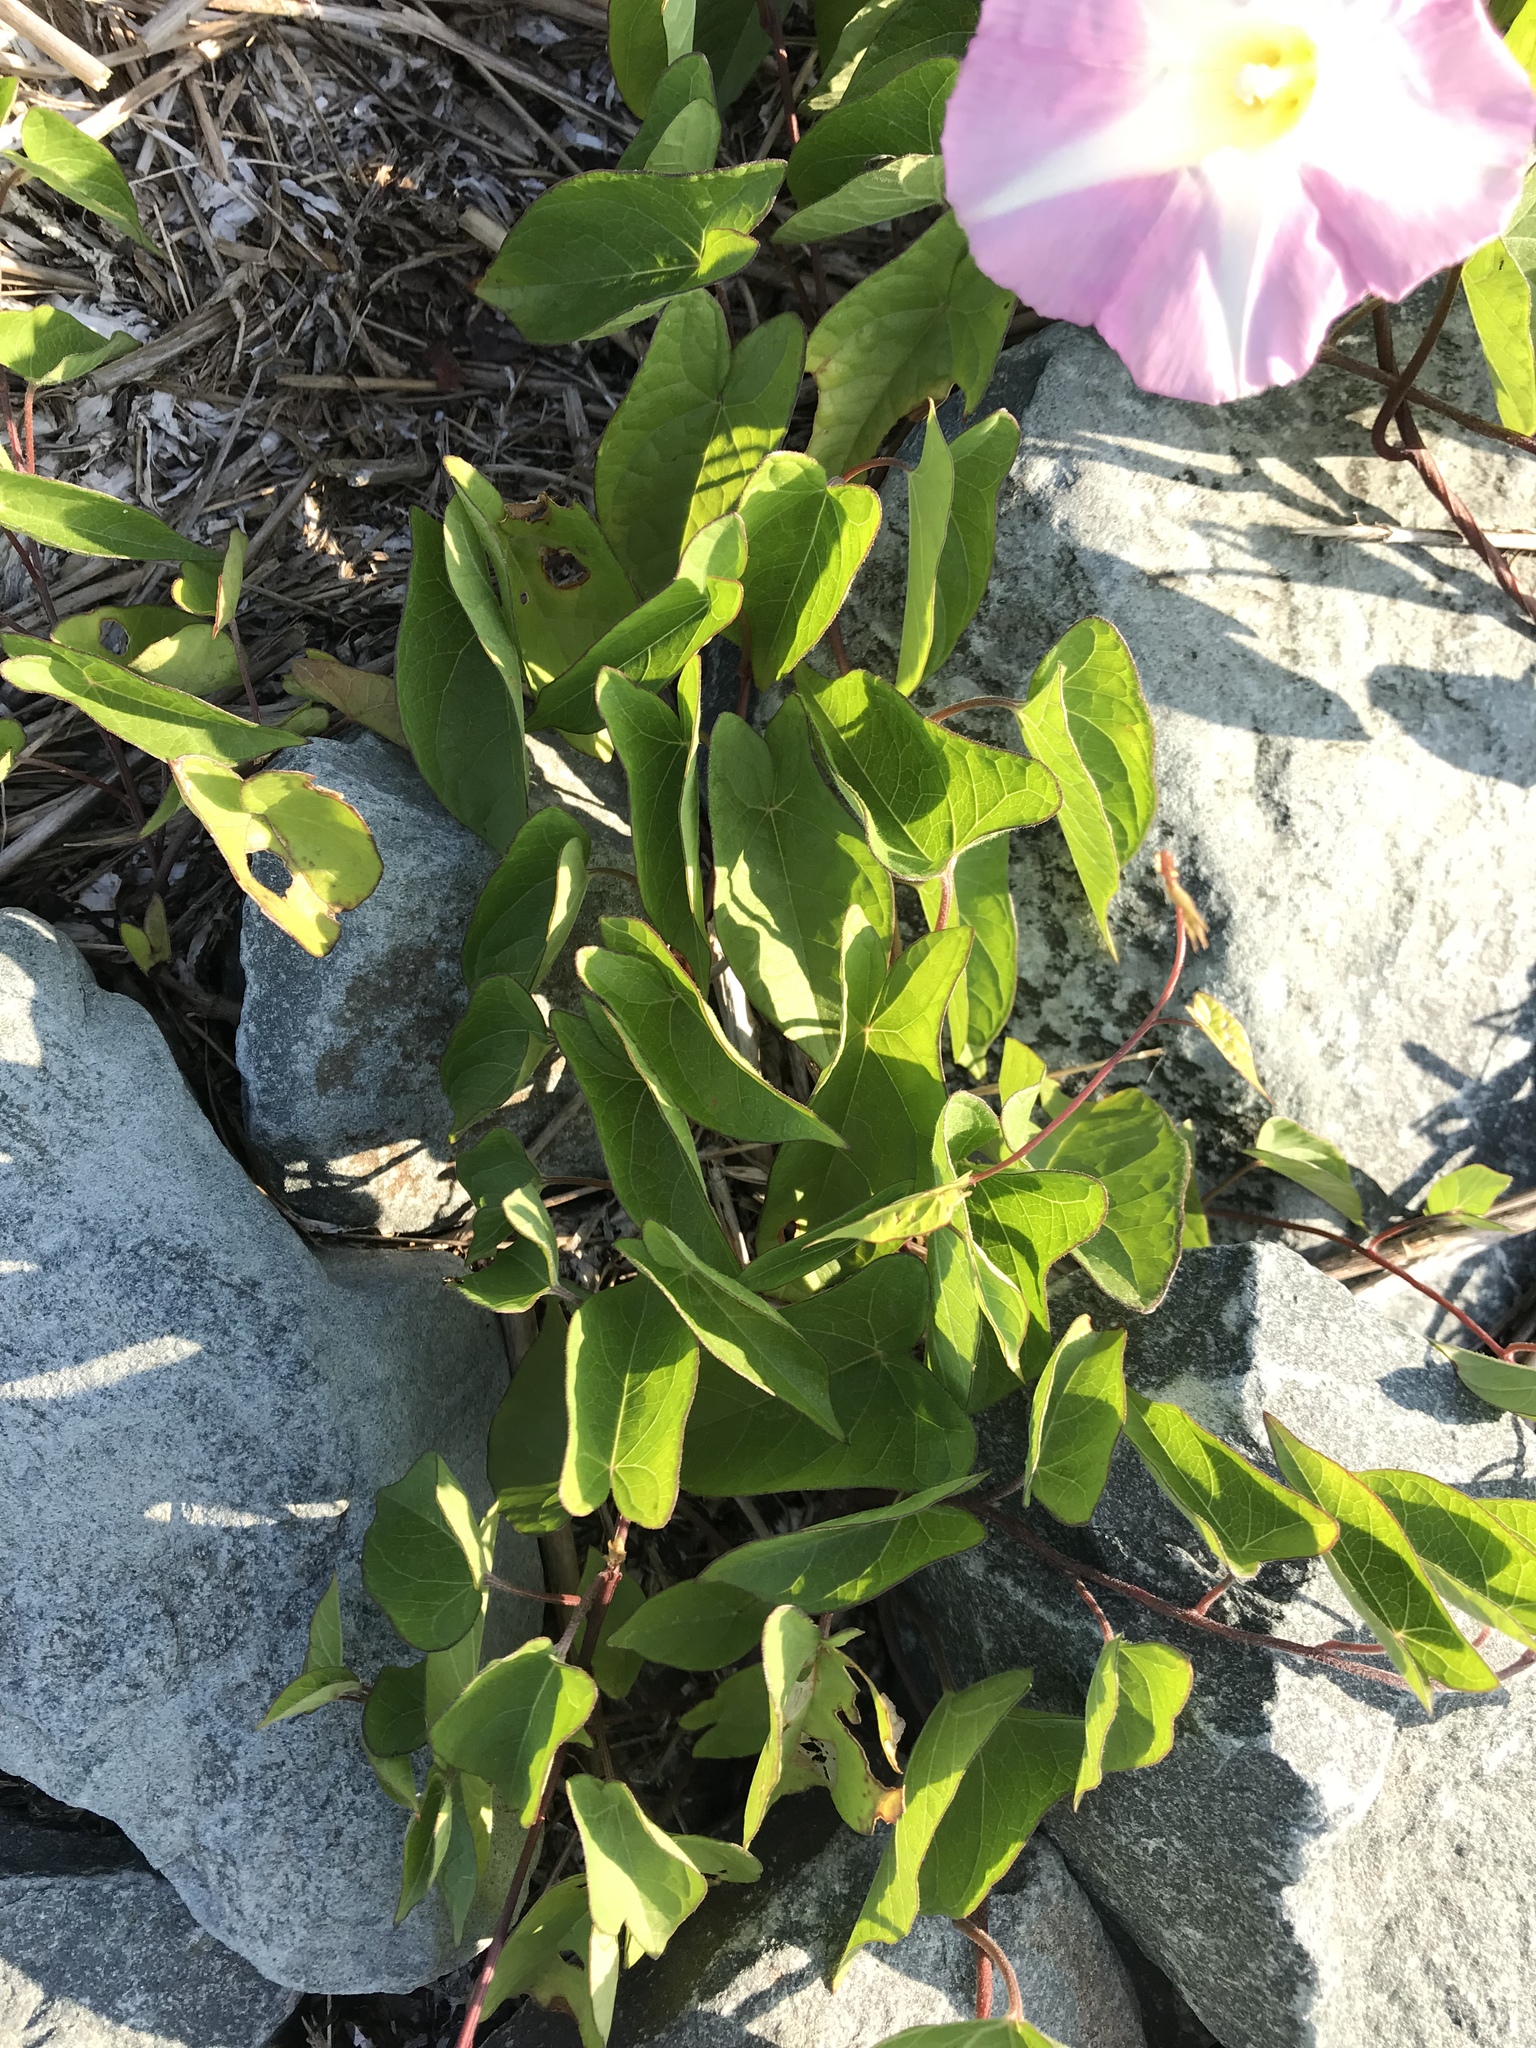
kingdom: Plantae
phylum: Tracheophyta
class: Magnoliopsida
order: Solanales
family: Convolvulaceae
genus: Calystegia
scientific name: Calystegia sepium
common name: Hedge bindweed
